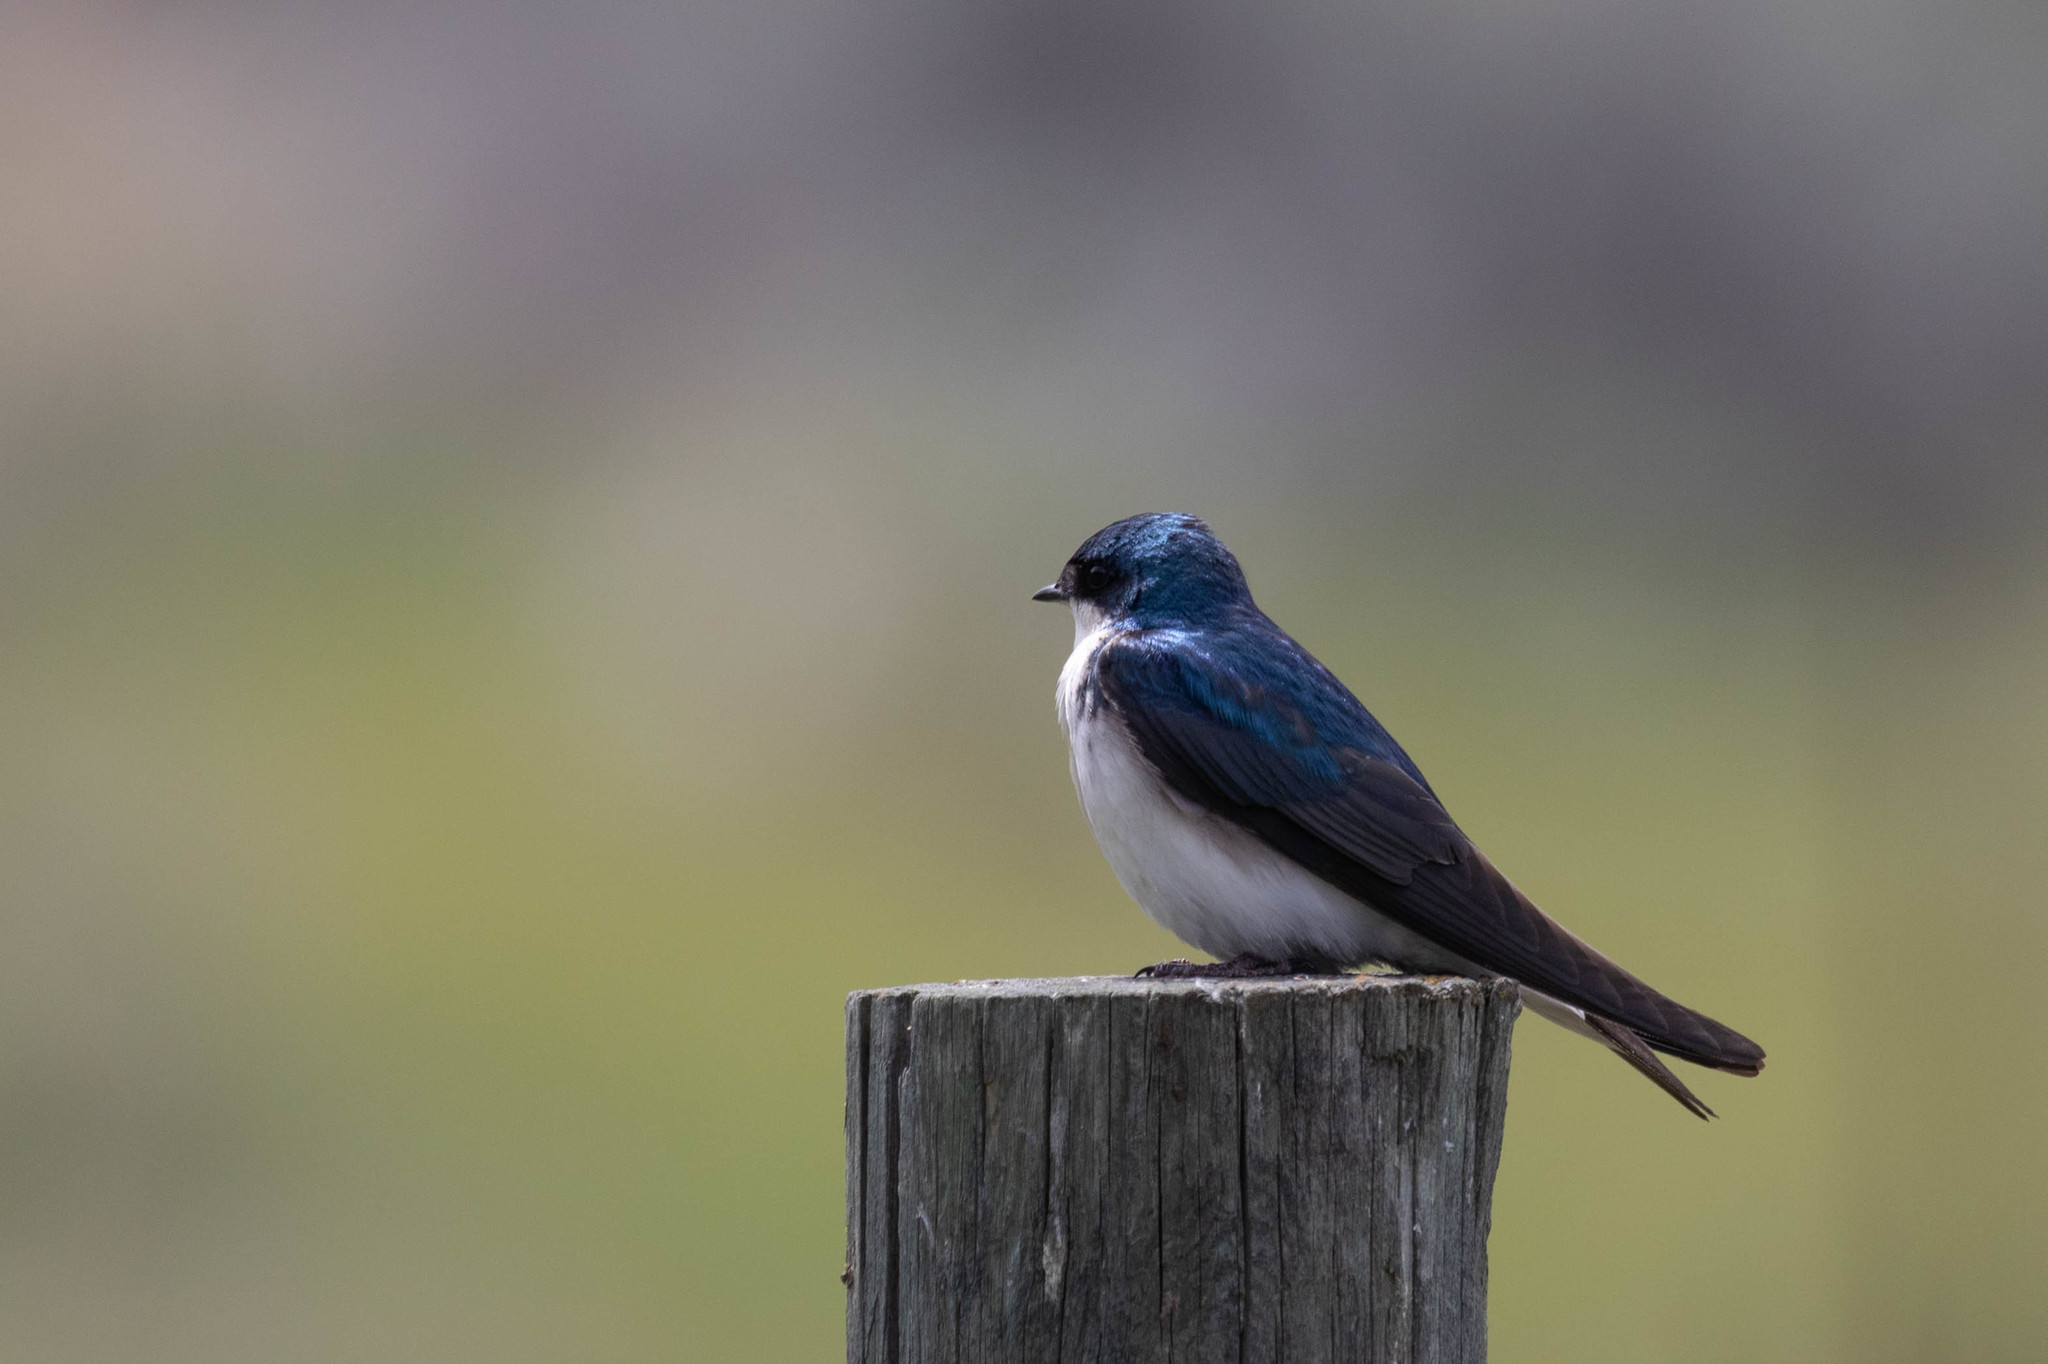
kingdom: Animalia
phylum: Chordata
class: Aves
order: Passeriformes
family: Hirundinidae
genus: Tachycineta
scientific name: Tachycineta bicolor
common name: Tree swallow
